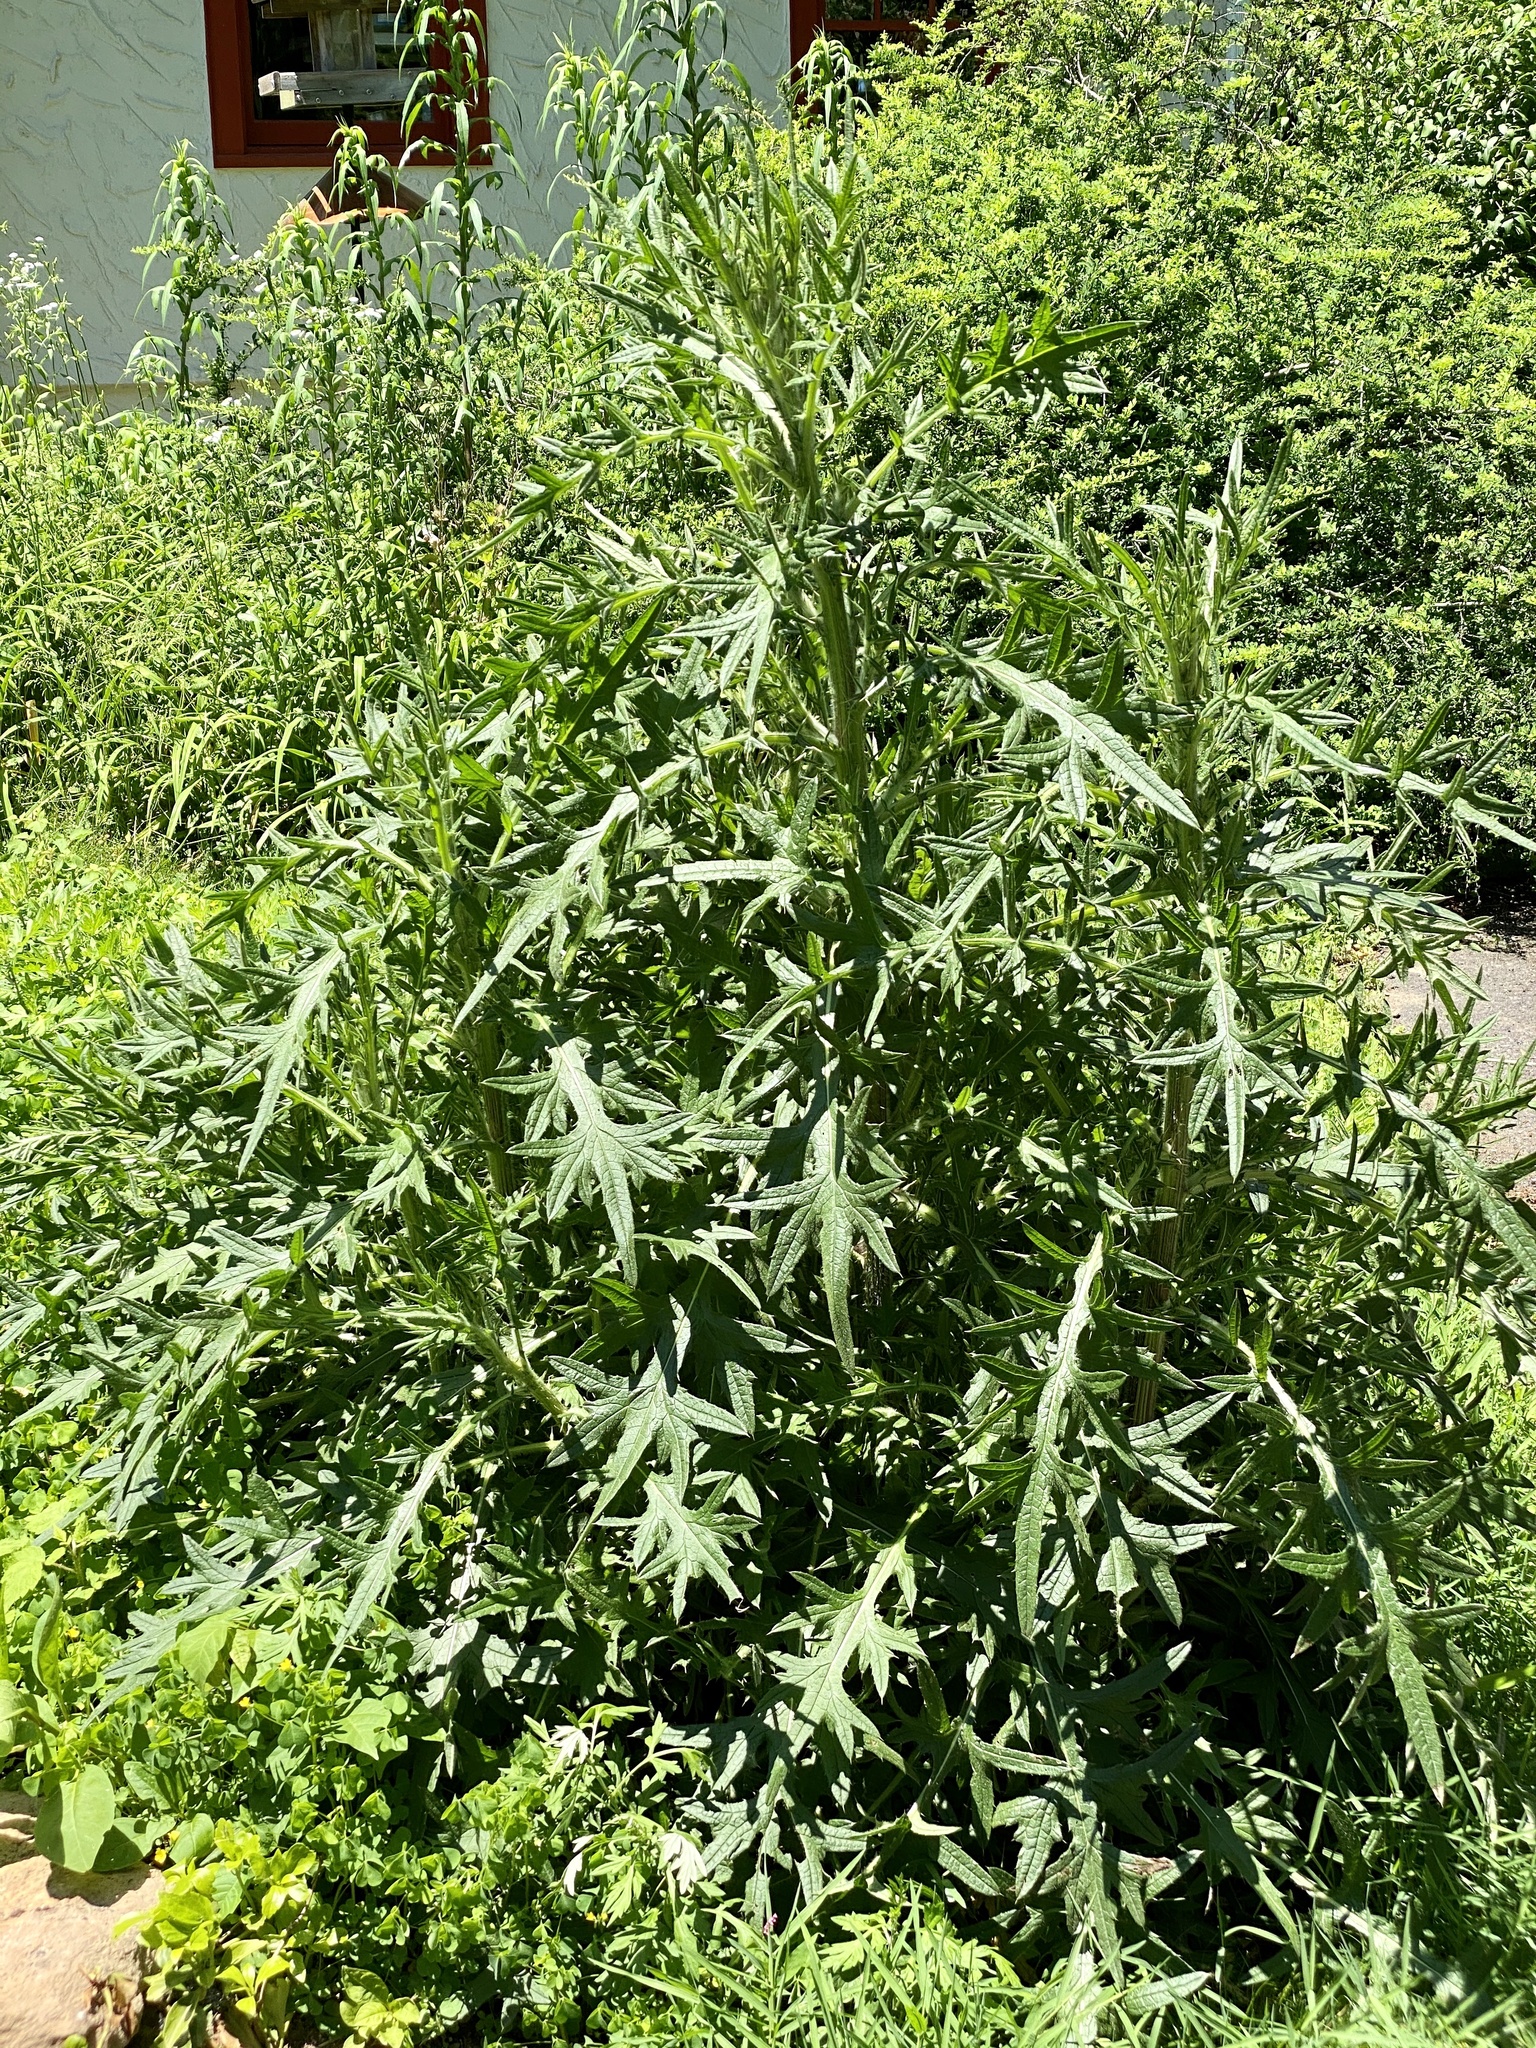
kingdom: Plantae
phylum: Tracheophyta
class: Magnoliopsida
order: Asterales
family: Asteraceae
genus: Cirsium
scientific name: Cirsium vulgare
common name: Bull thistle
